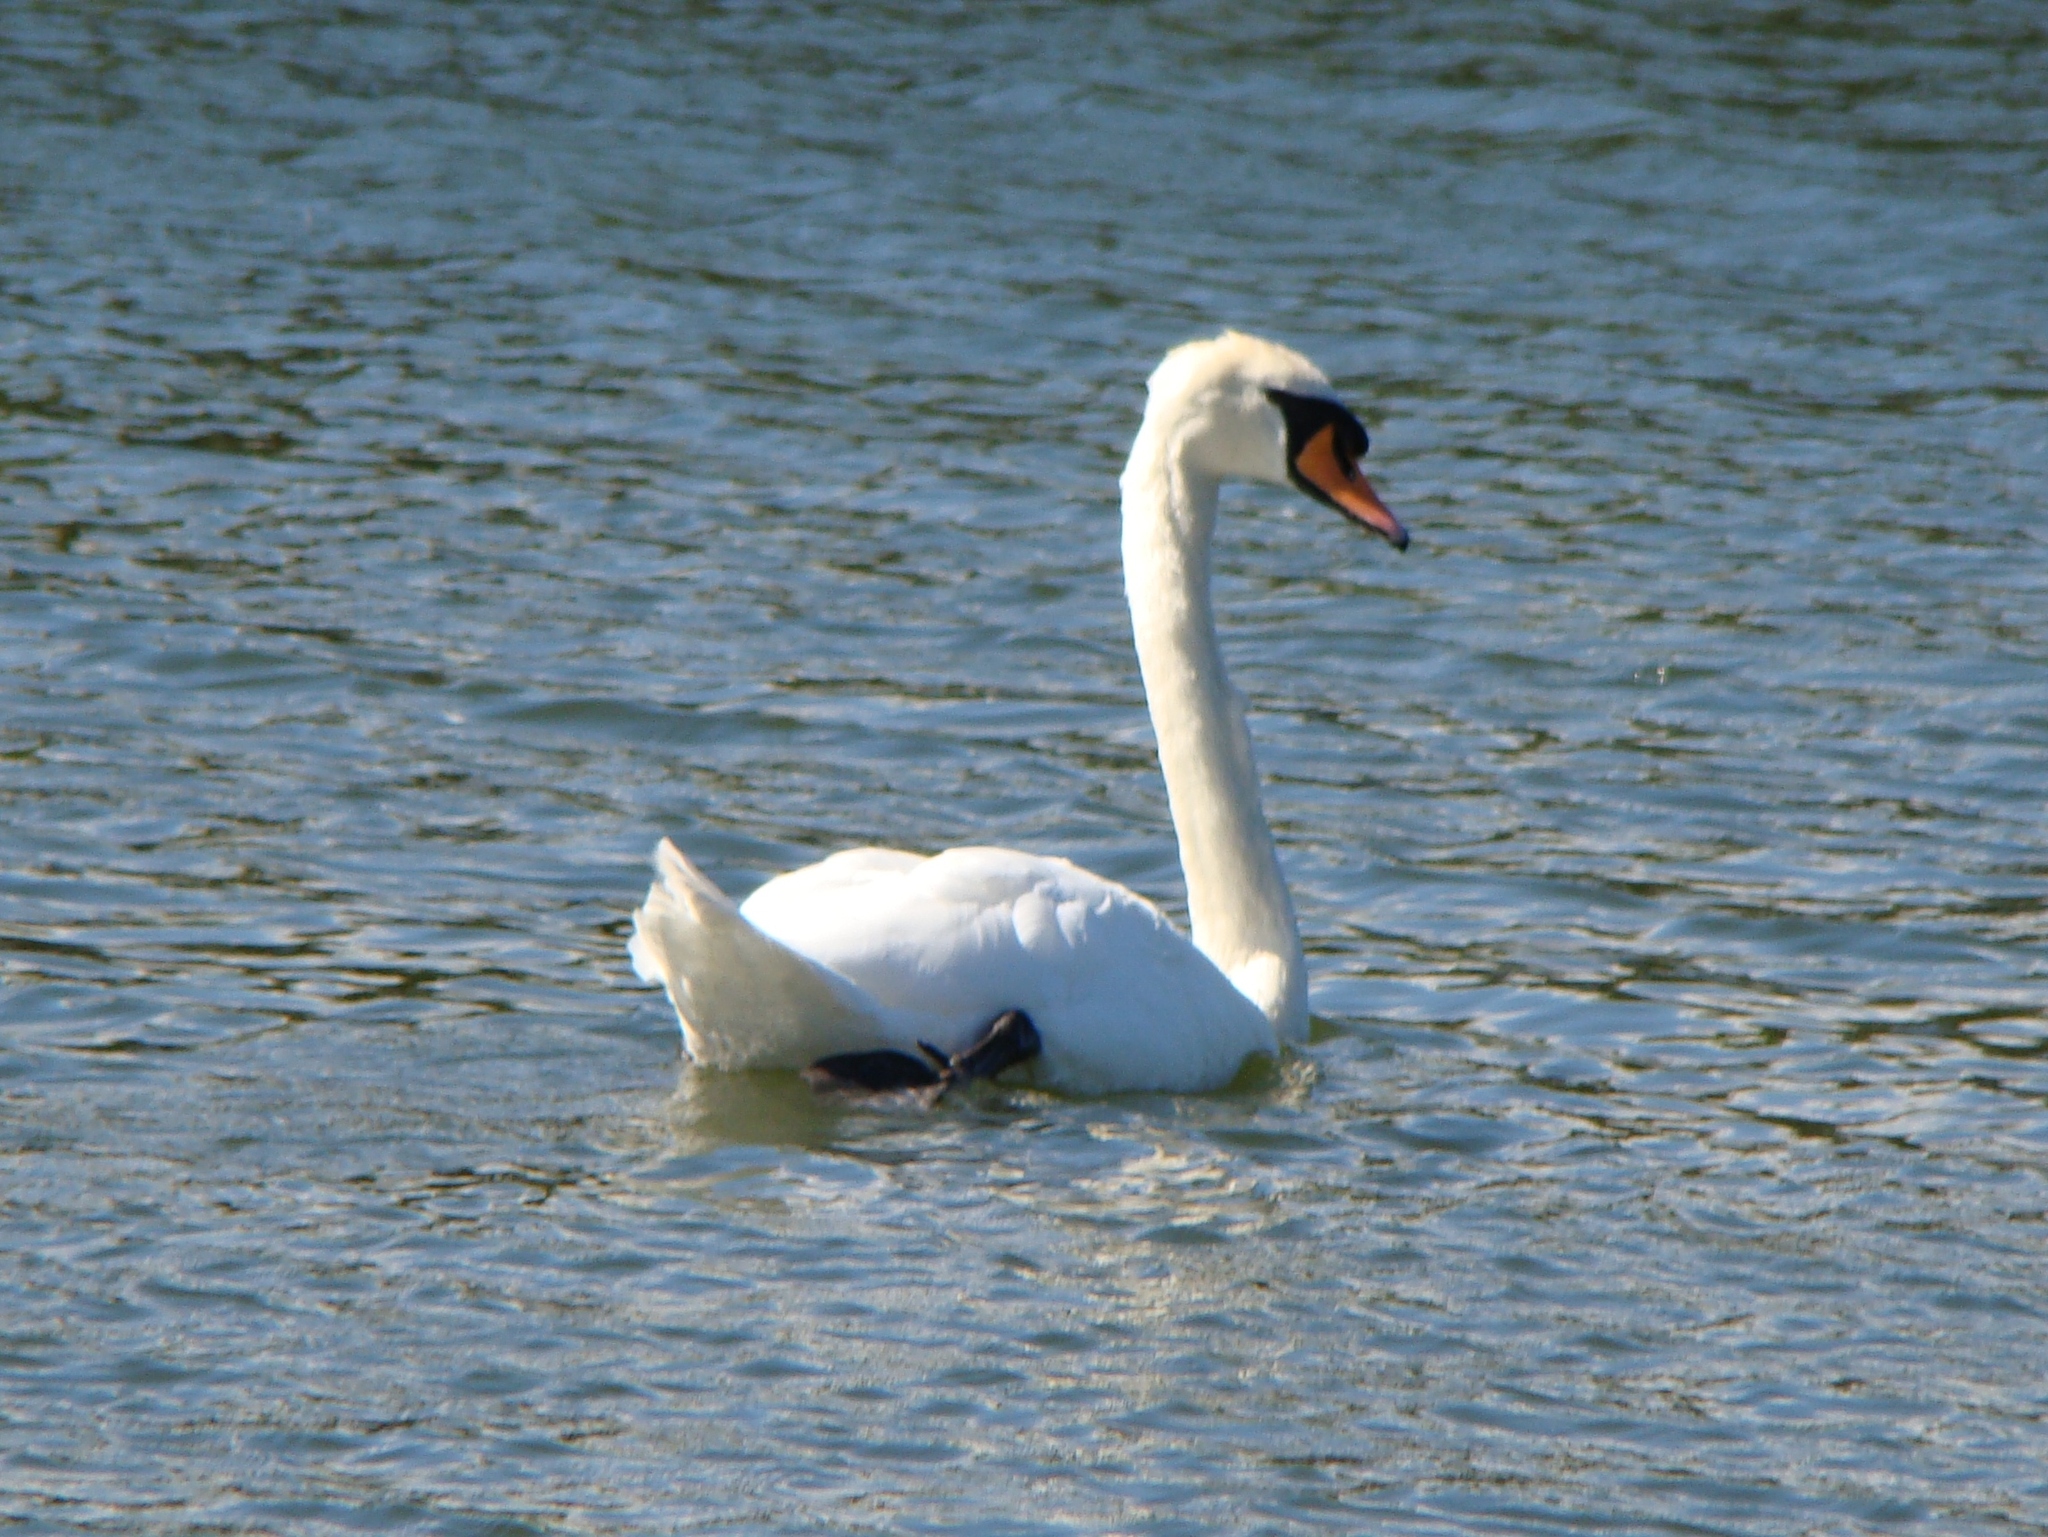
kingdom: Animalia
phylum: Chordata
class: Aves
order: Anseriformes
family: Anatidae
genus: Cygnus
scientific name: Cygnus olor
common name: Mute swan
